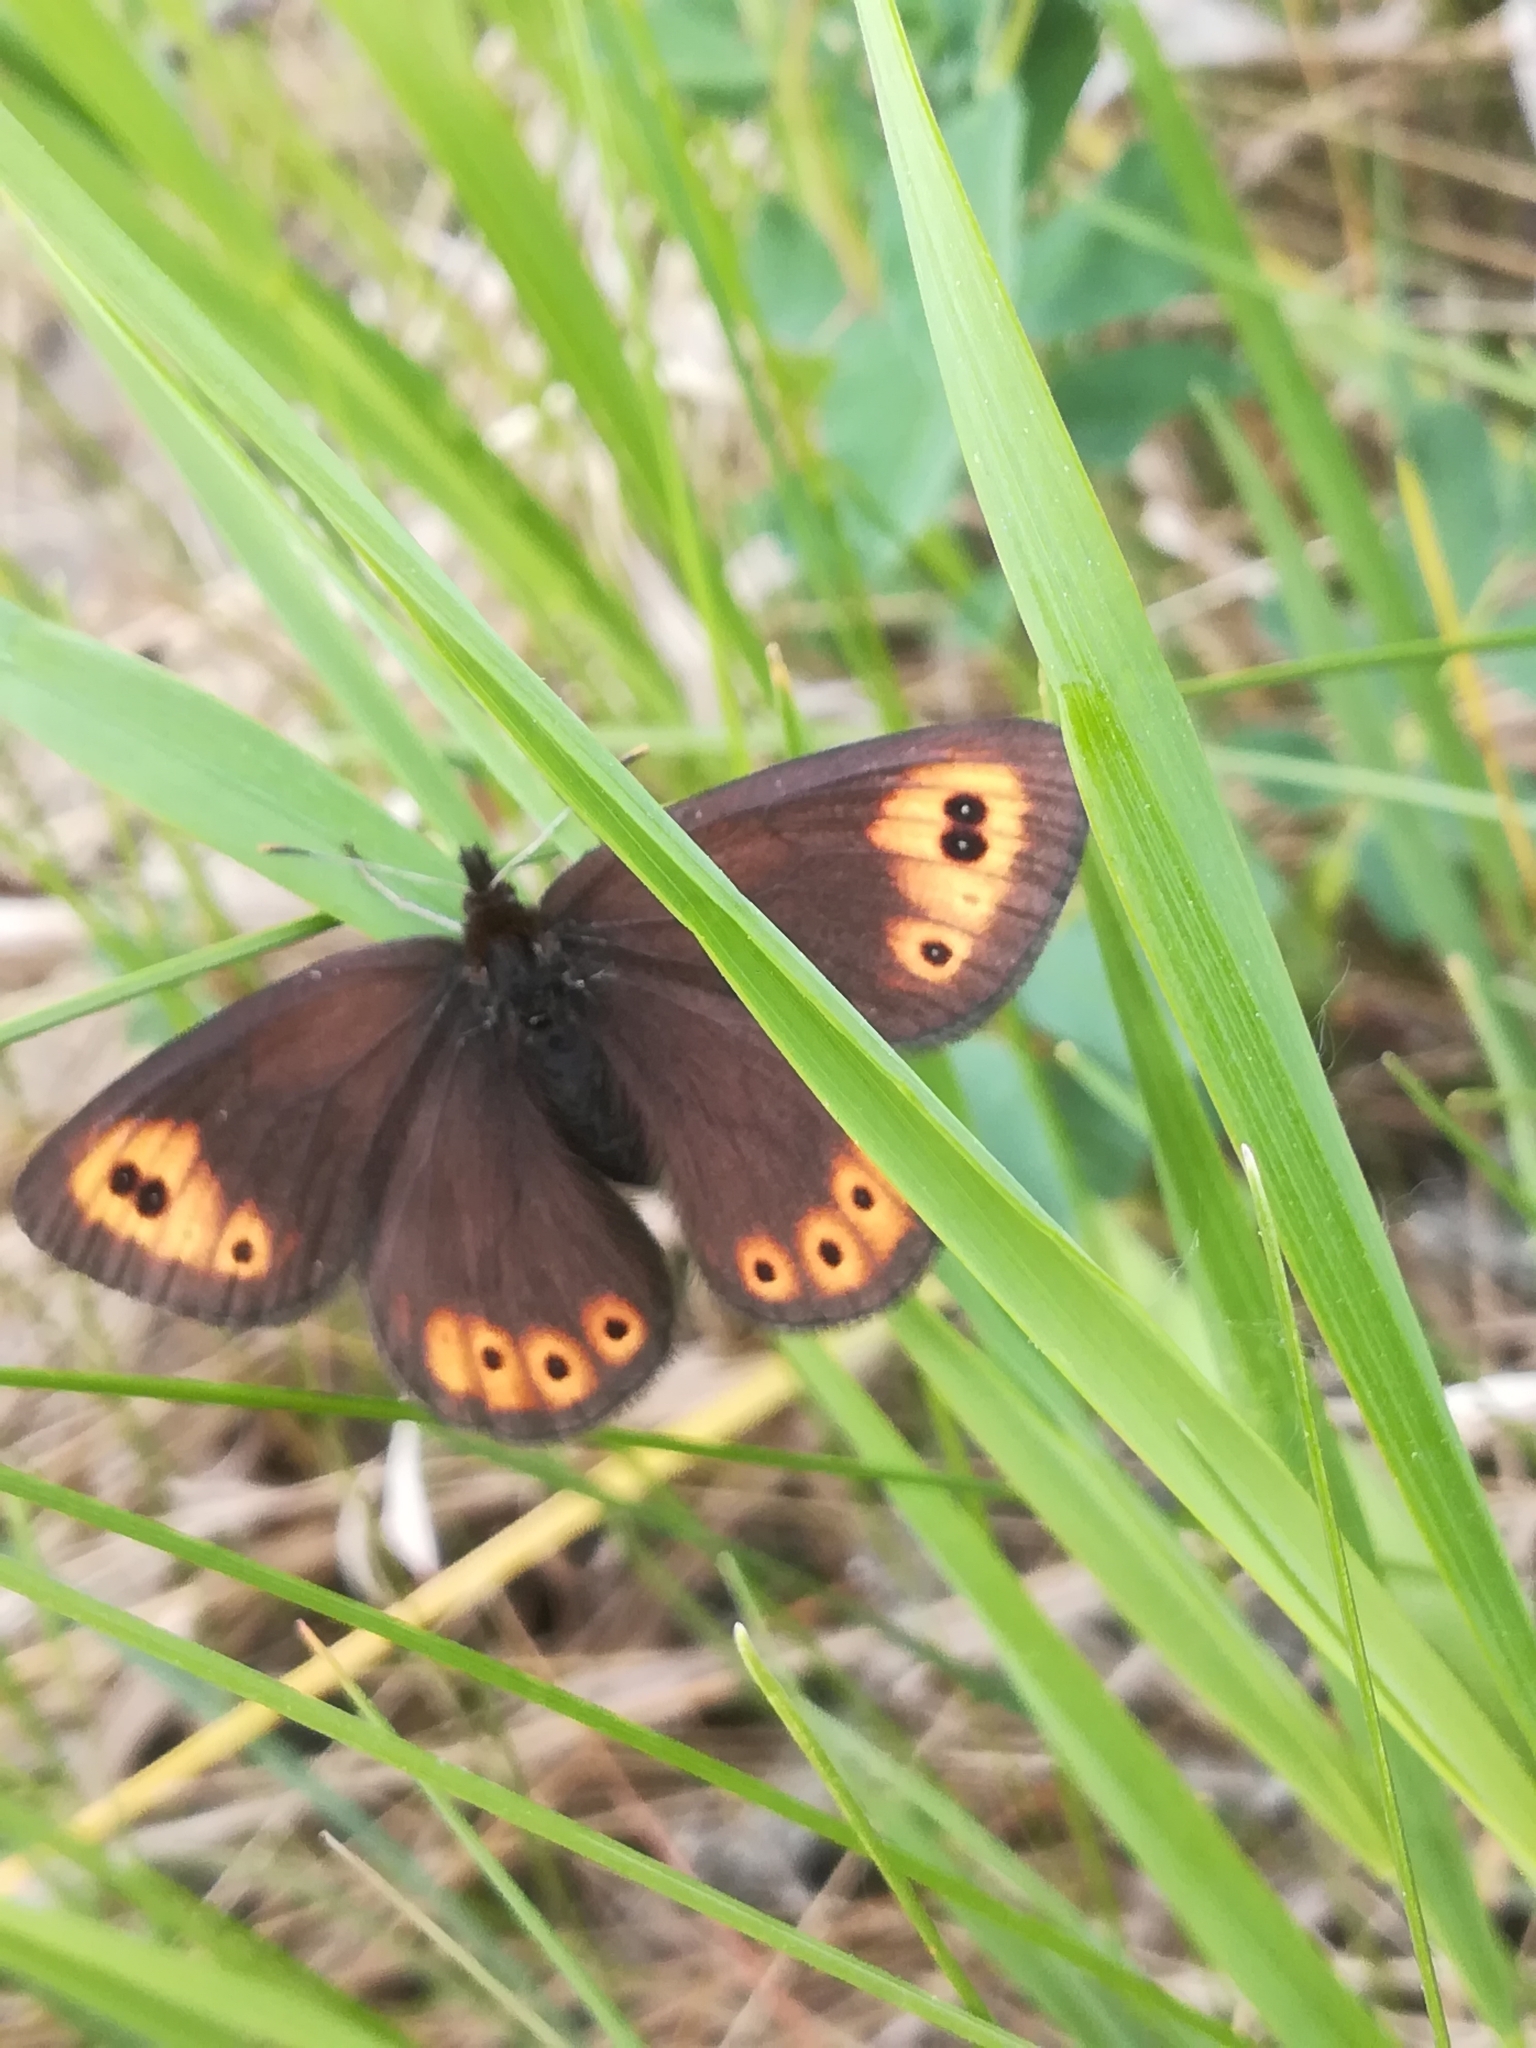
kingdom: Animalia
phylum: Arthropoda
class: Insecta
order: Lepidoptera
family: Nymphalidae
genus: Erebia
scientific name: Erebia epipsodea
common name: Common alpine
